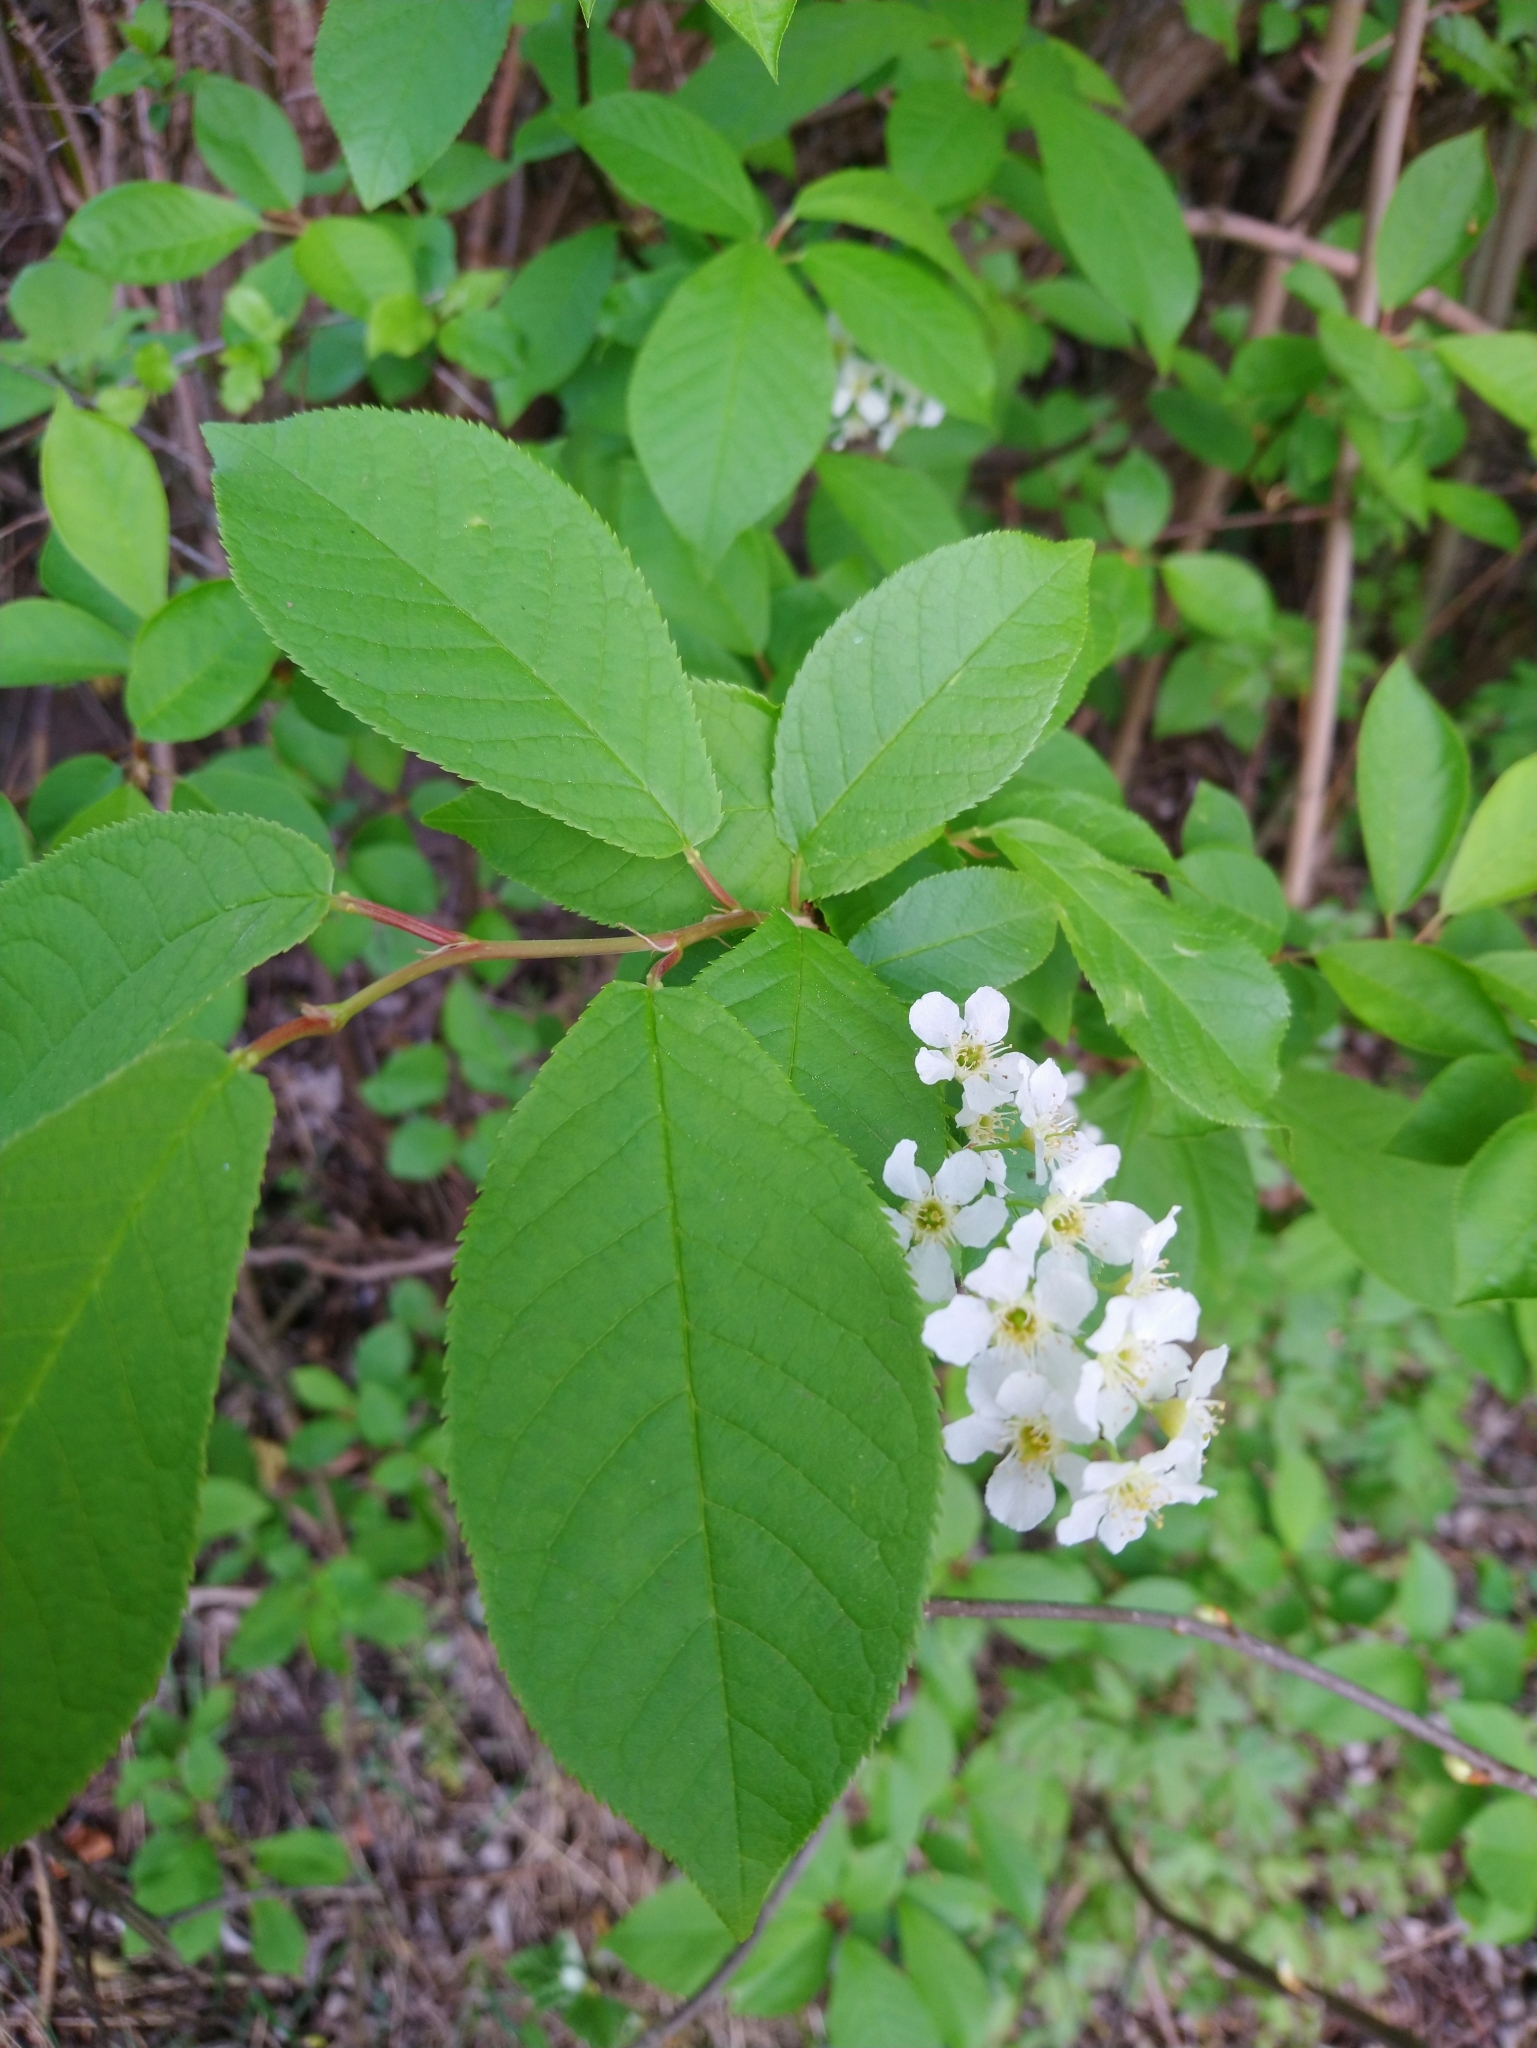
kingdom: Plantae
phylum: Tracheophyta
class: Magnoliopsida
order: Rosales
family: Rosaceae
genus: Prunus
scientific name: Prunus padus
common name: Bird cherry
